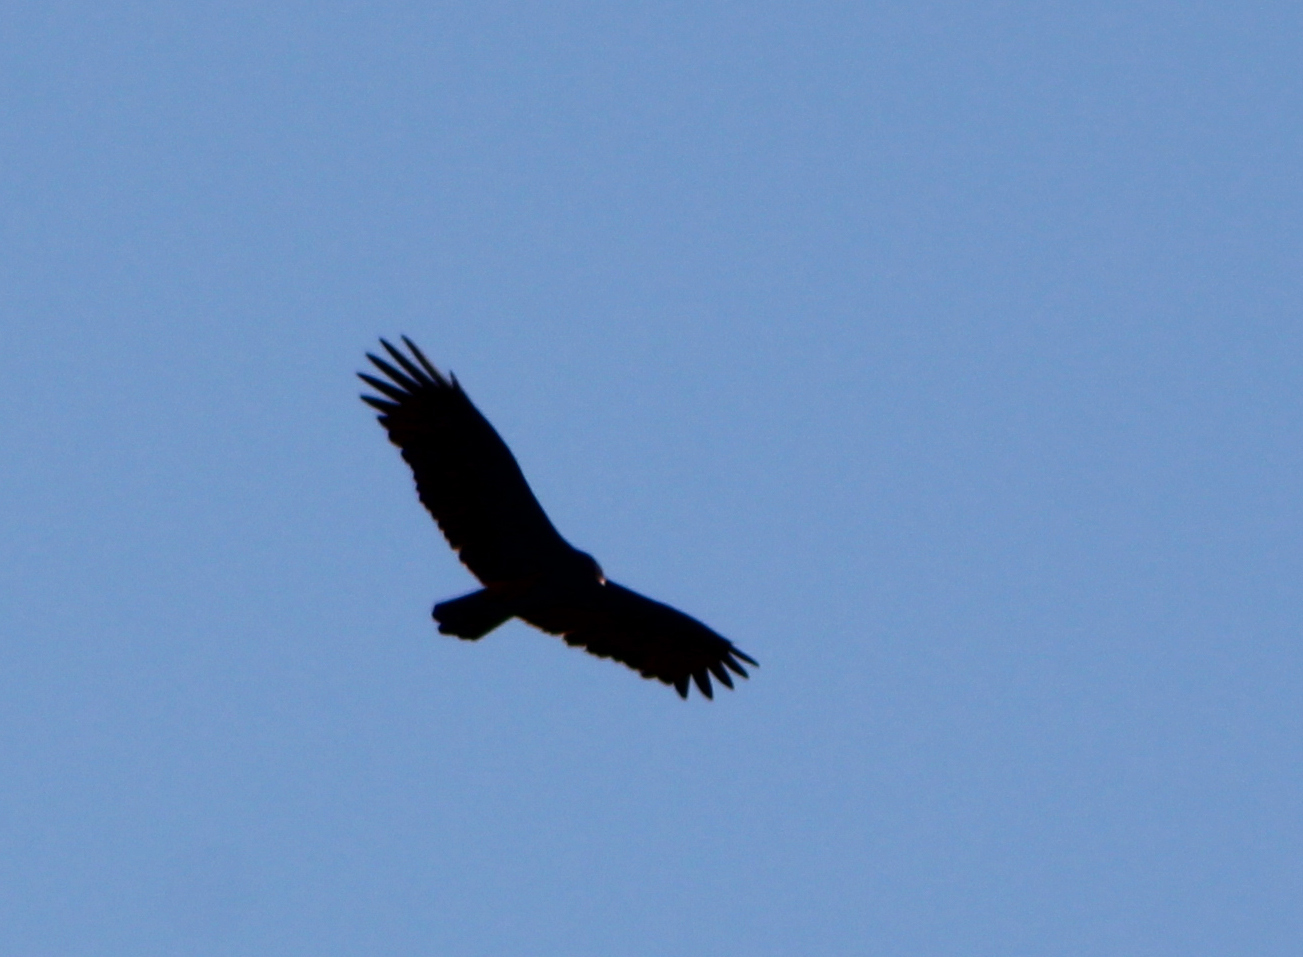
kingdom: Animalia
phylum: Chordata
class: Aves
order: Accipitriformes
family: Cathartidae
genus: Cathartes
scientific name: Cathartes aura
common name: Turkey vulture
